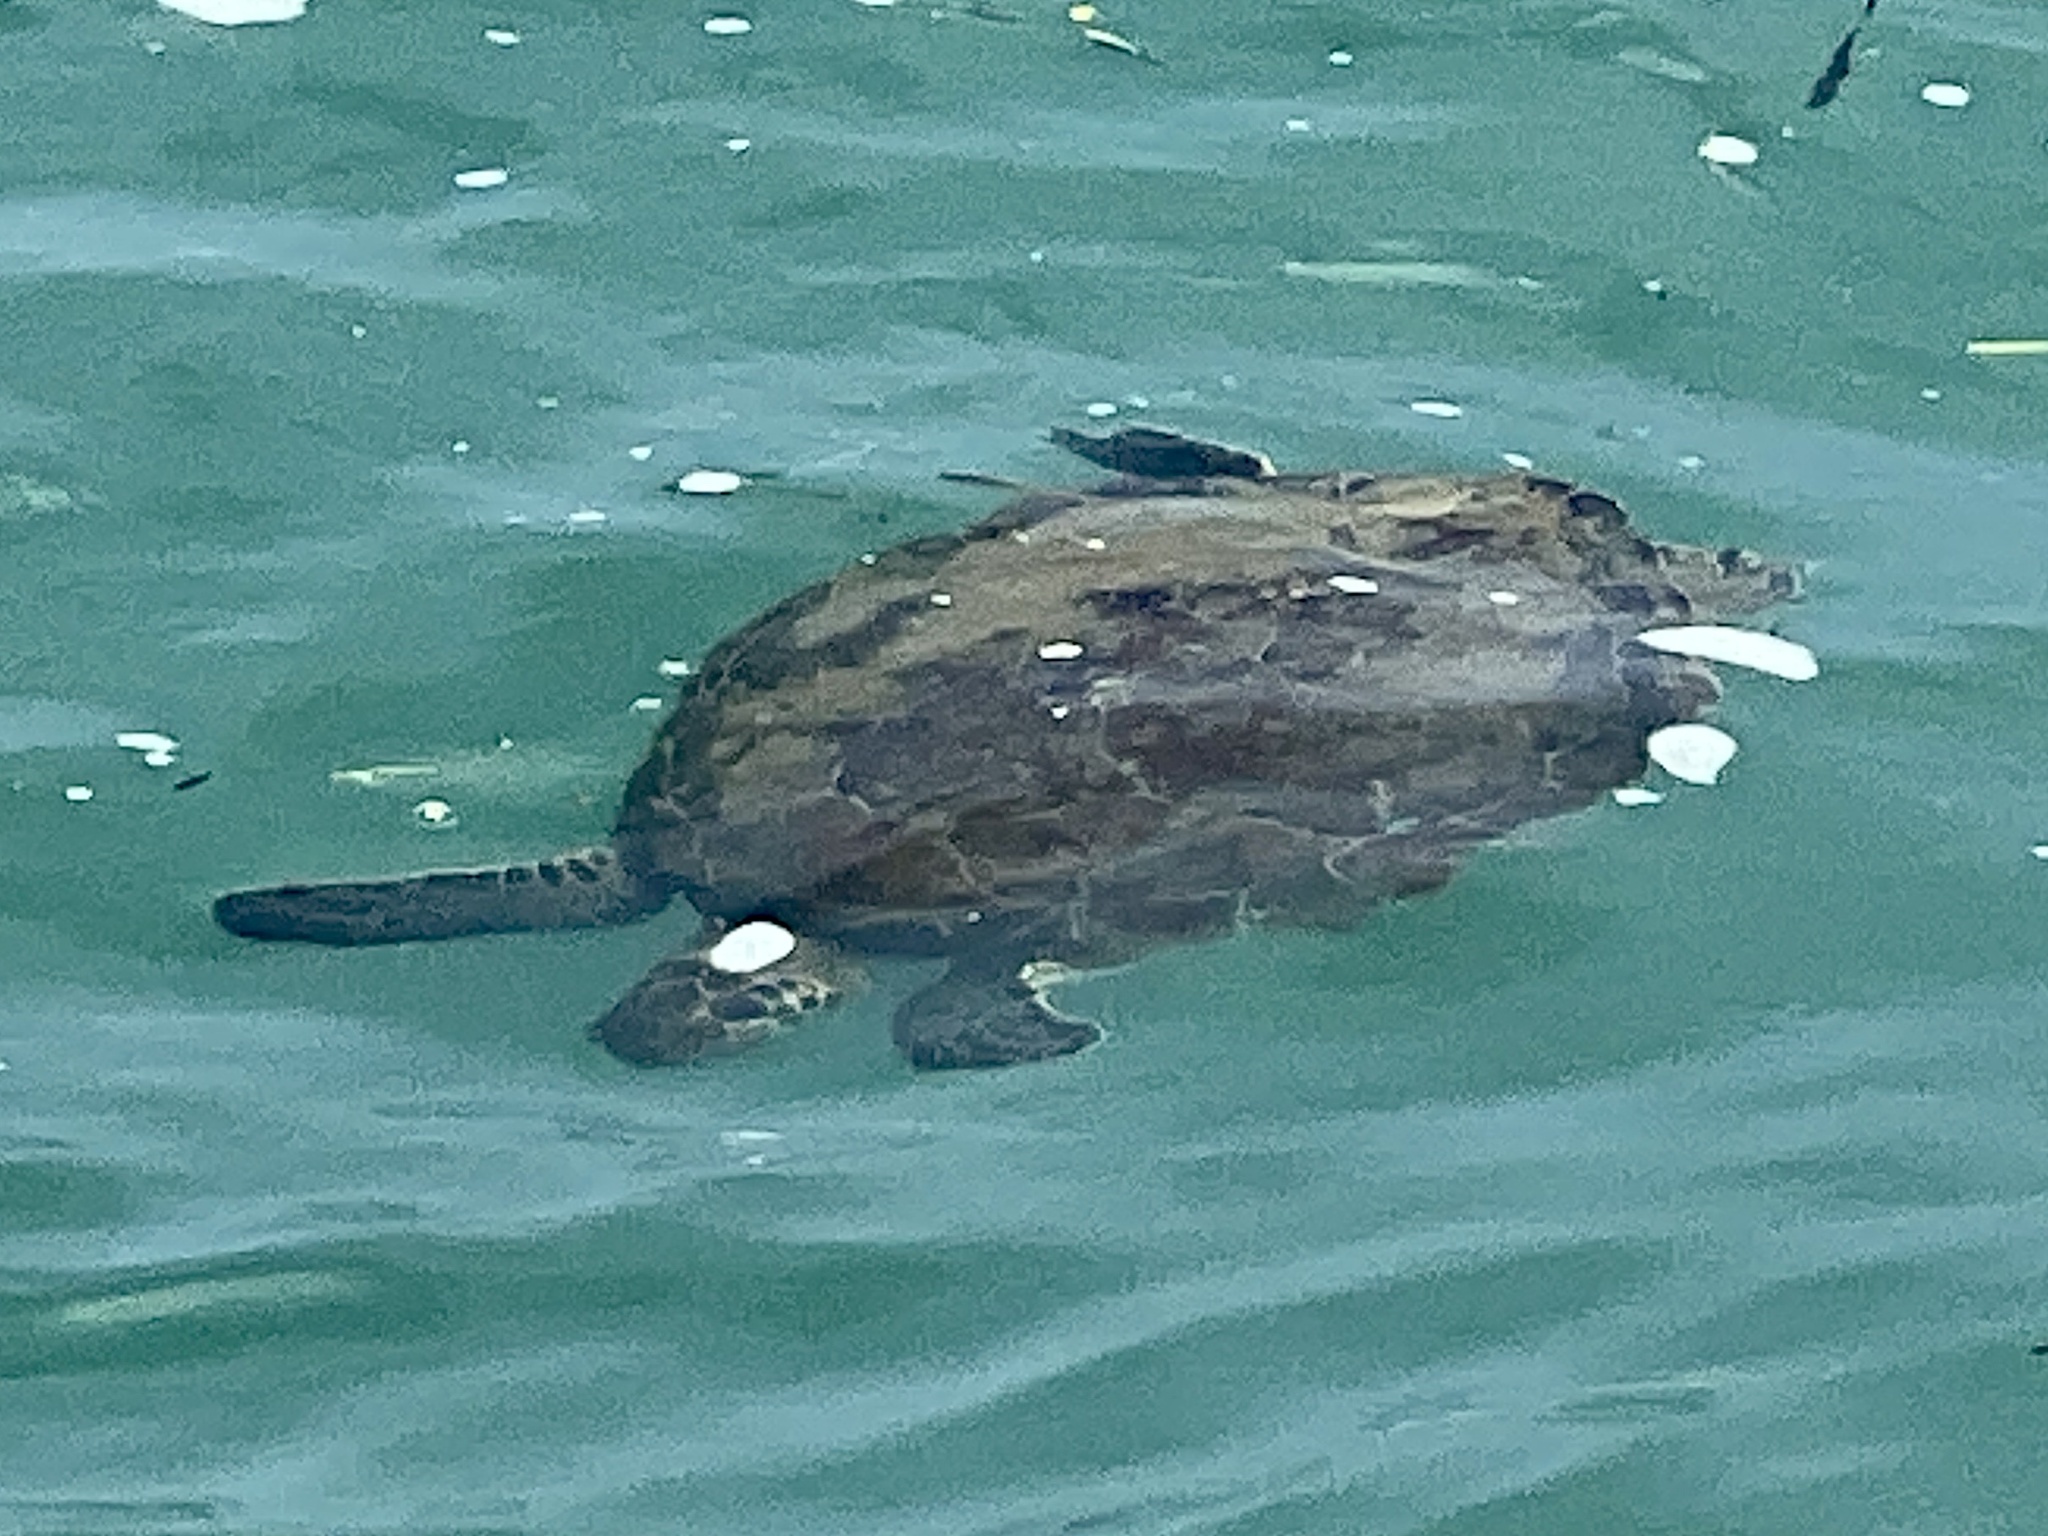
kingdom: Animalia
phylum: Chordata
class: Testudines
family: Cheloniidae
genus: Chelonia
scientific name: Chelonia mydas
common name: Green turtle
